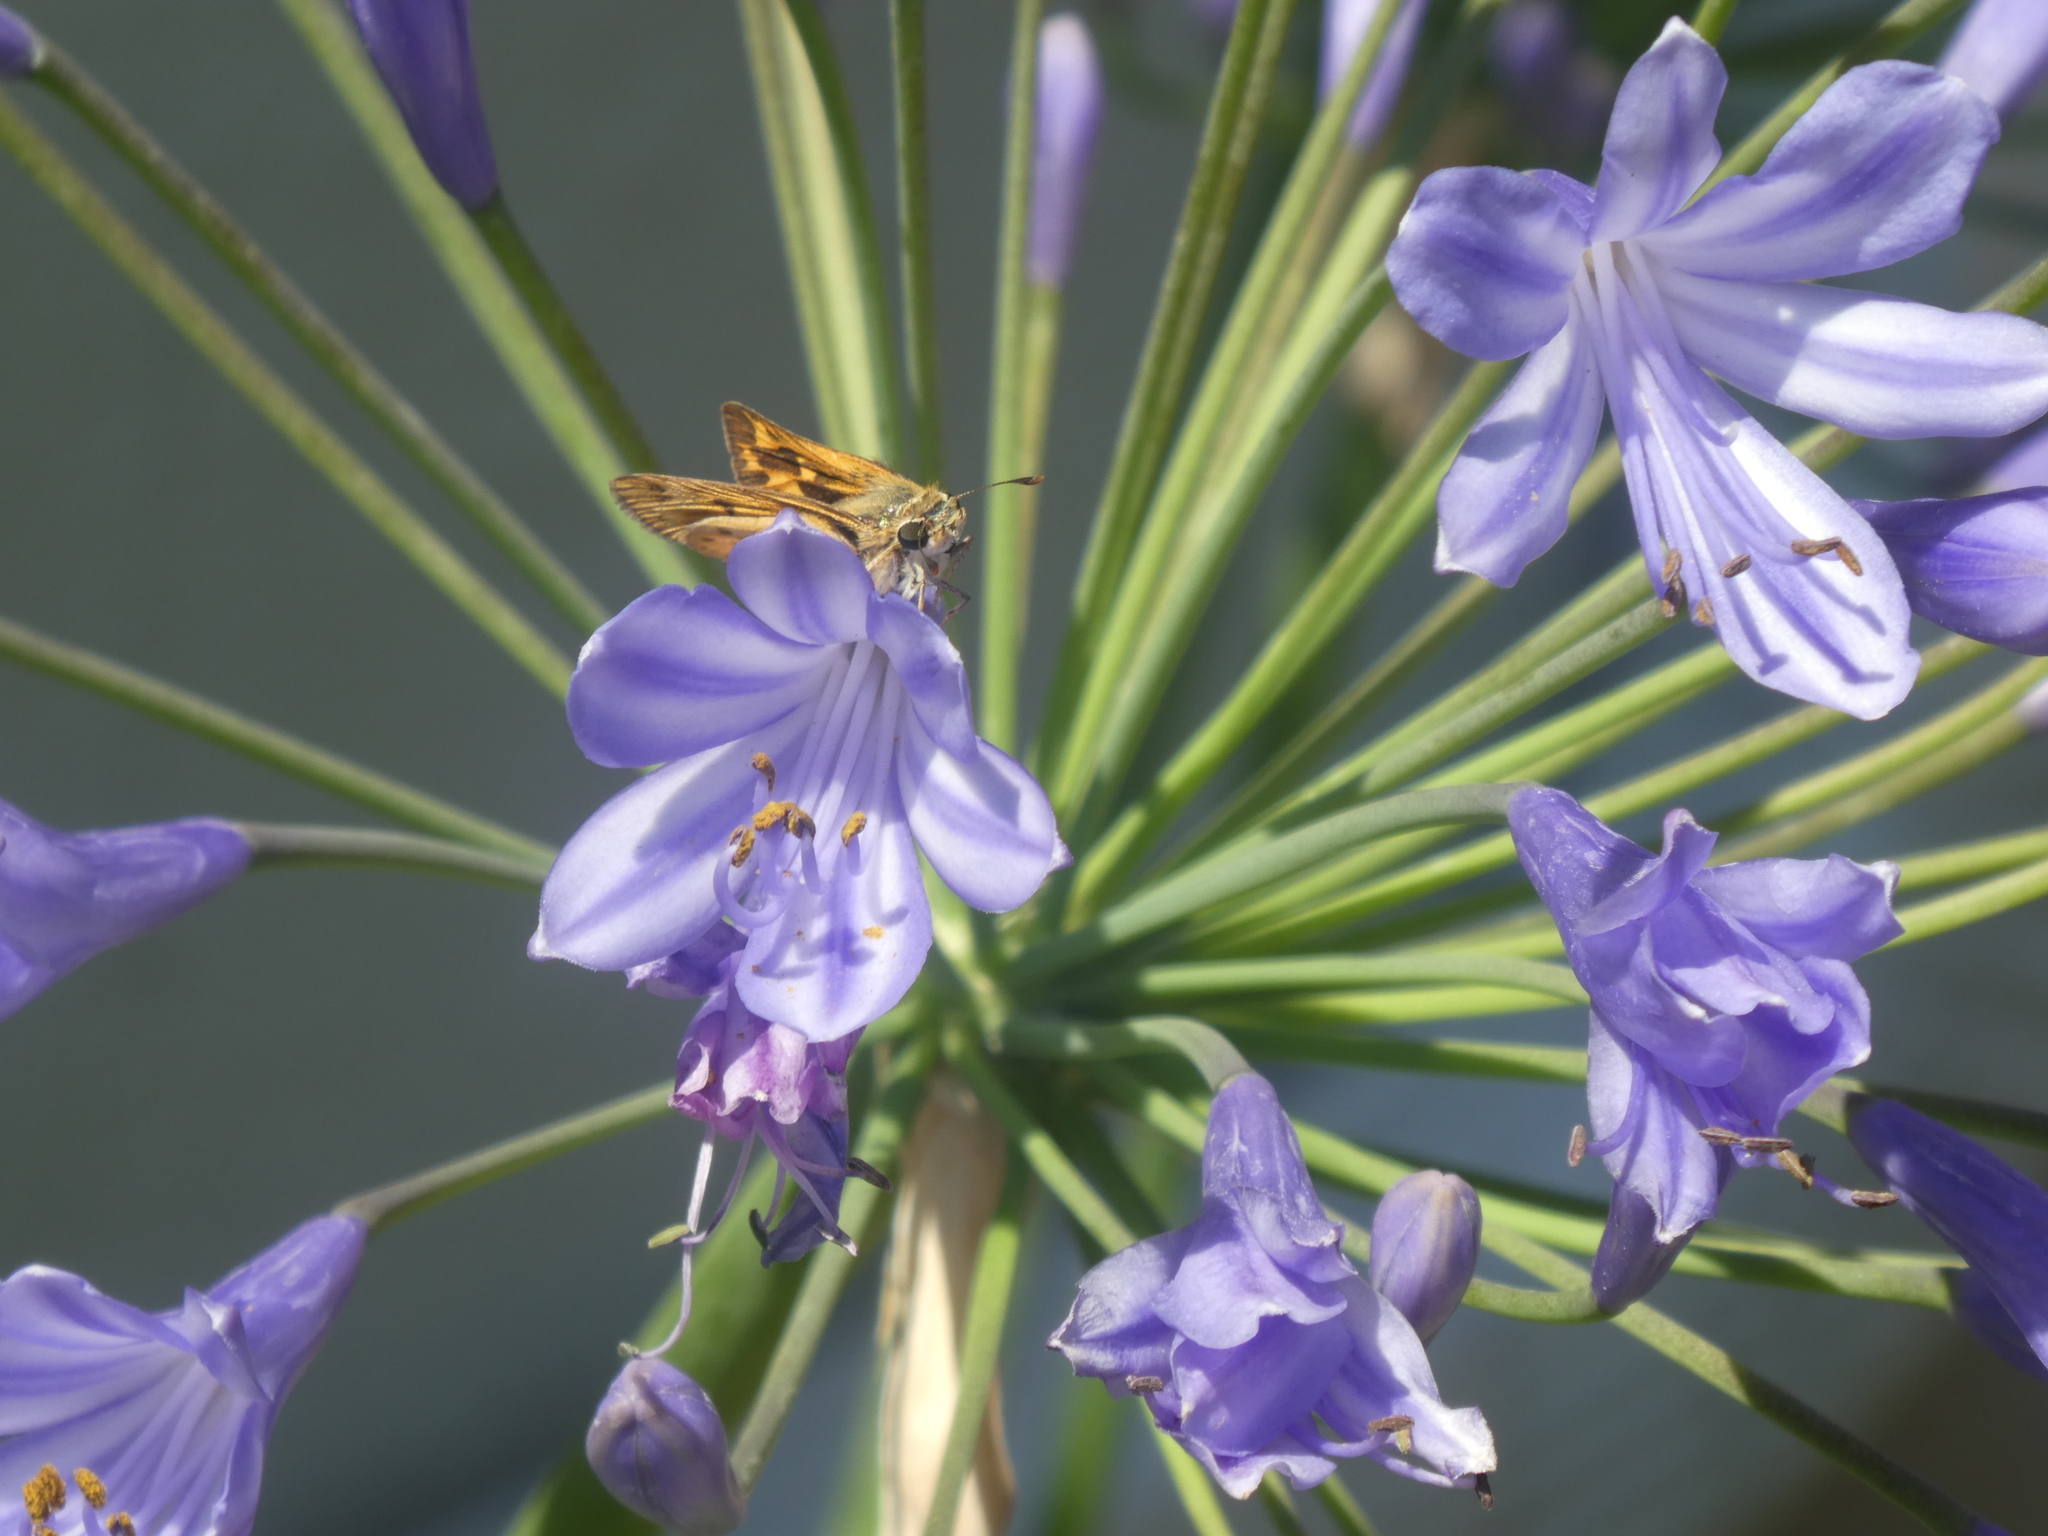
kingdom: Animalia
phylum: Arthropoda
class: Insecta
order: Lepidoptera
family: Hesperiidae
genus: Hylephila
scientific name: Hylephila phyleus
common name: Fiery skipper
